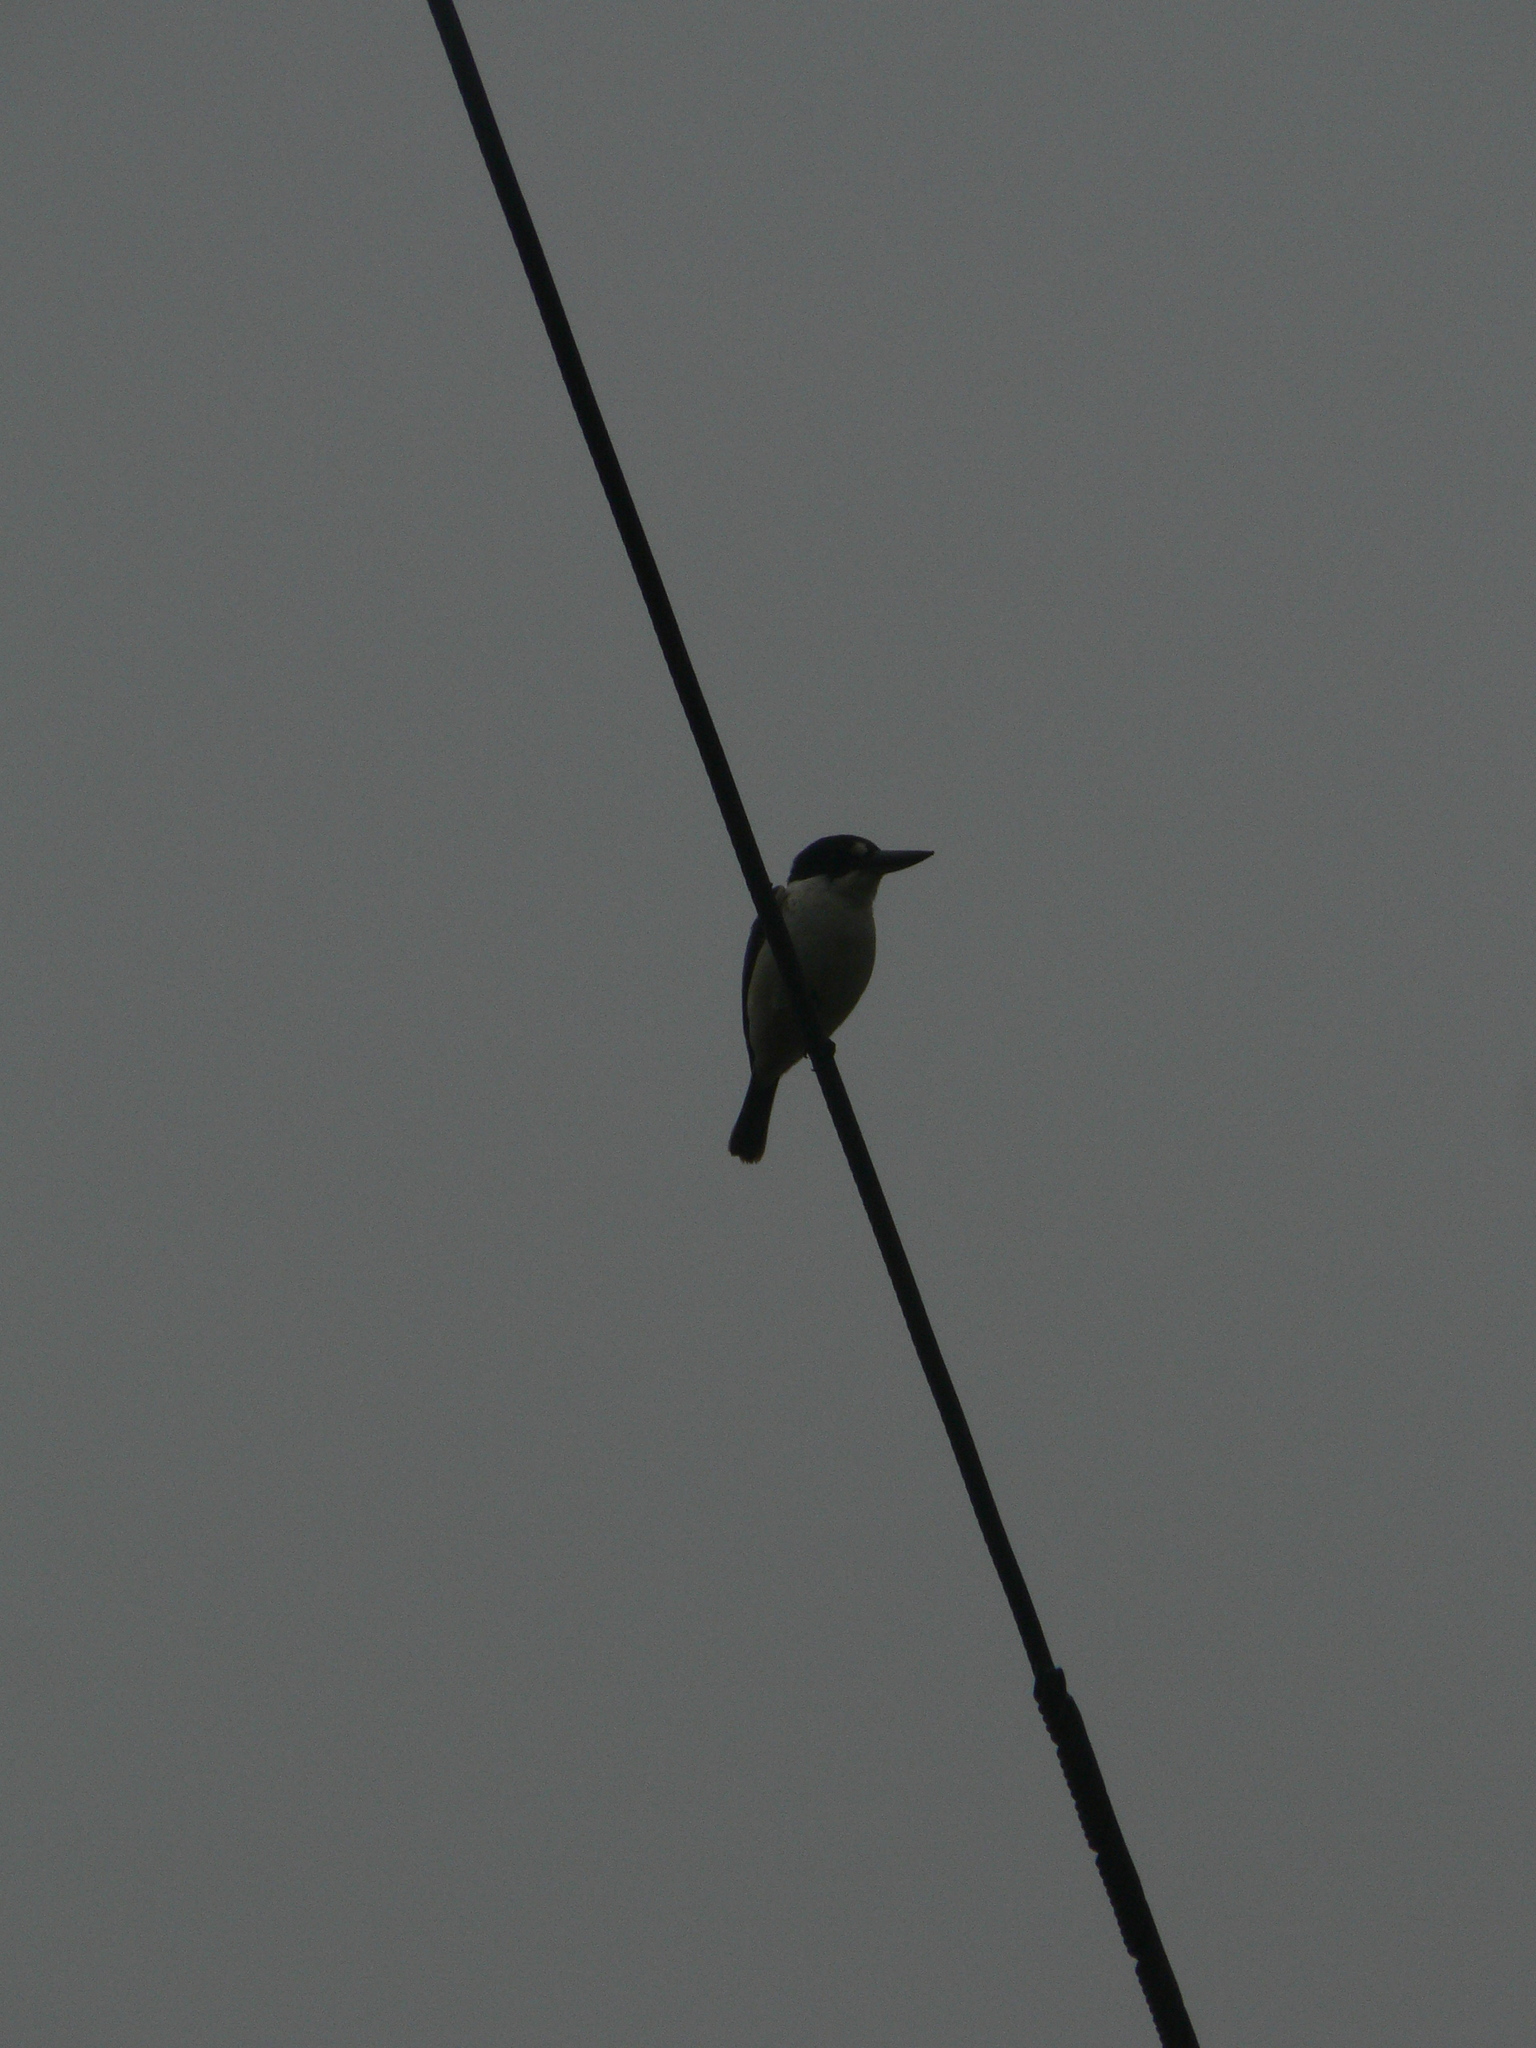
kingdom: Animalia
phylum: Chordata
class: Aves
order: Coraciiformes
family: Alcedinidae
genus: Todiramphus
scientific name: Todiramphus macleayii
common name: Forest kingfisher
